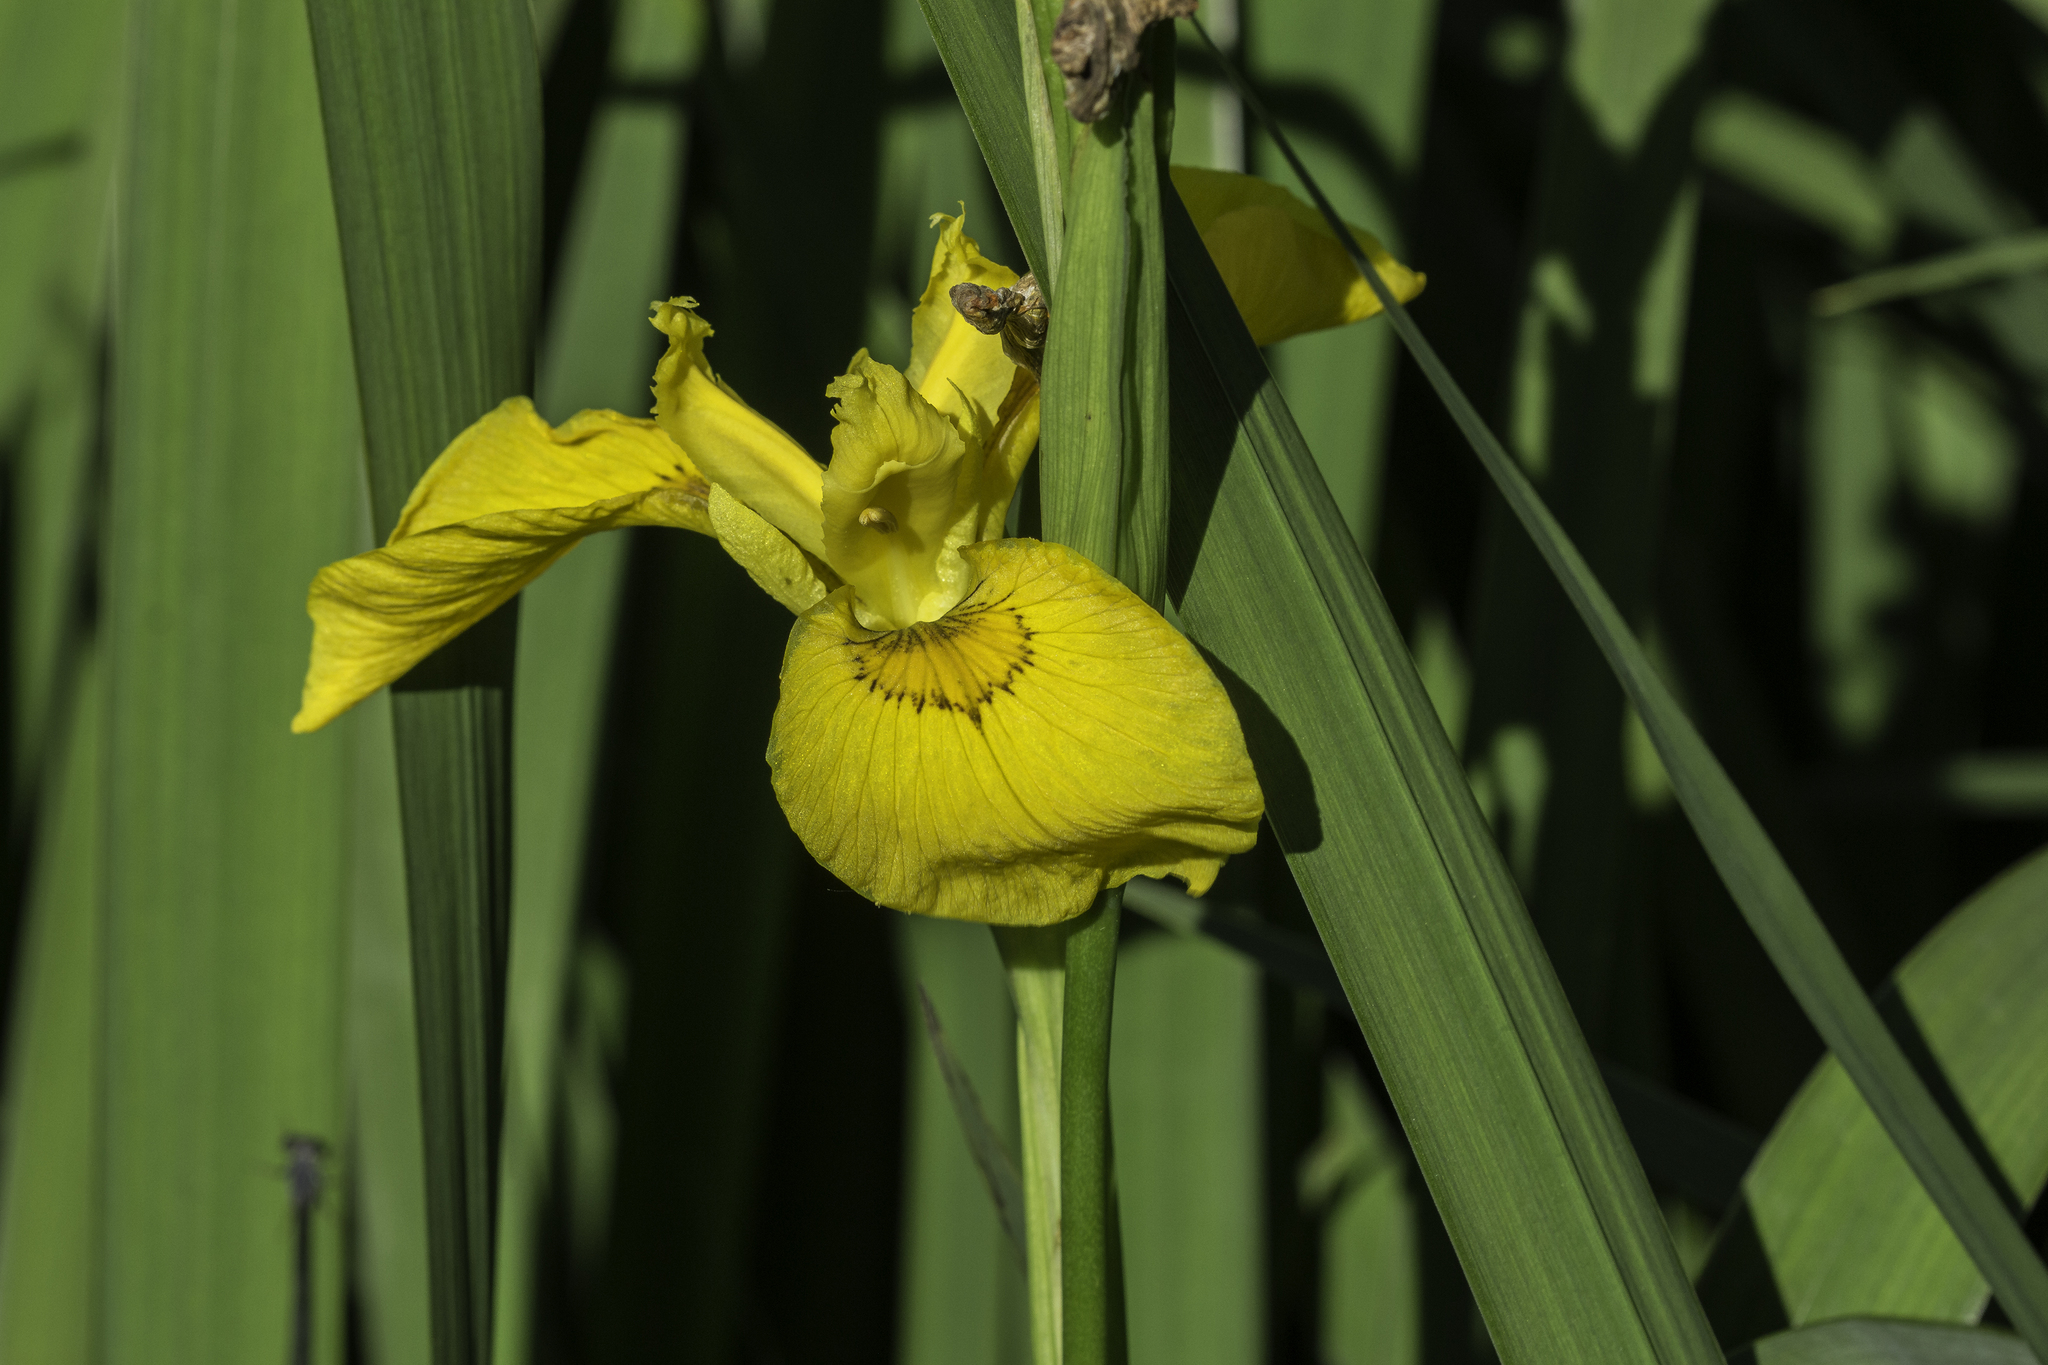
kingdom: Plantae
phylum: Tracheophyta
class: Liliopsida
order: Asparagales
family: Iridaceae
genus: Iris
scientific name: Iris pseudacorus
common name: Yellow flag
